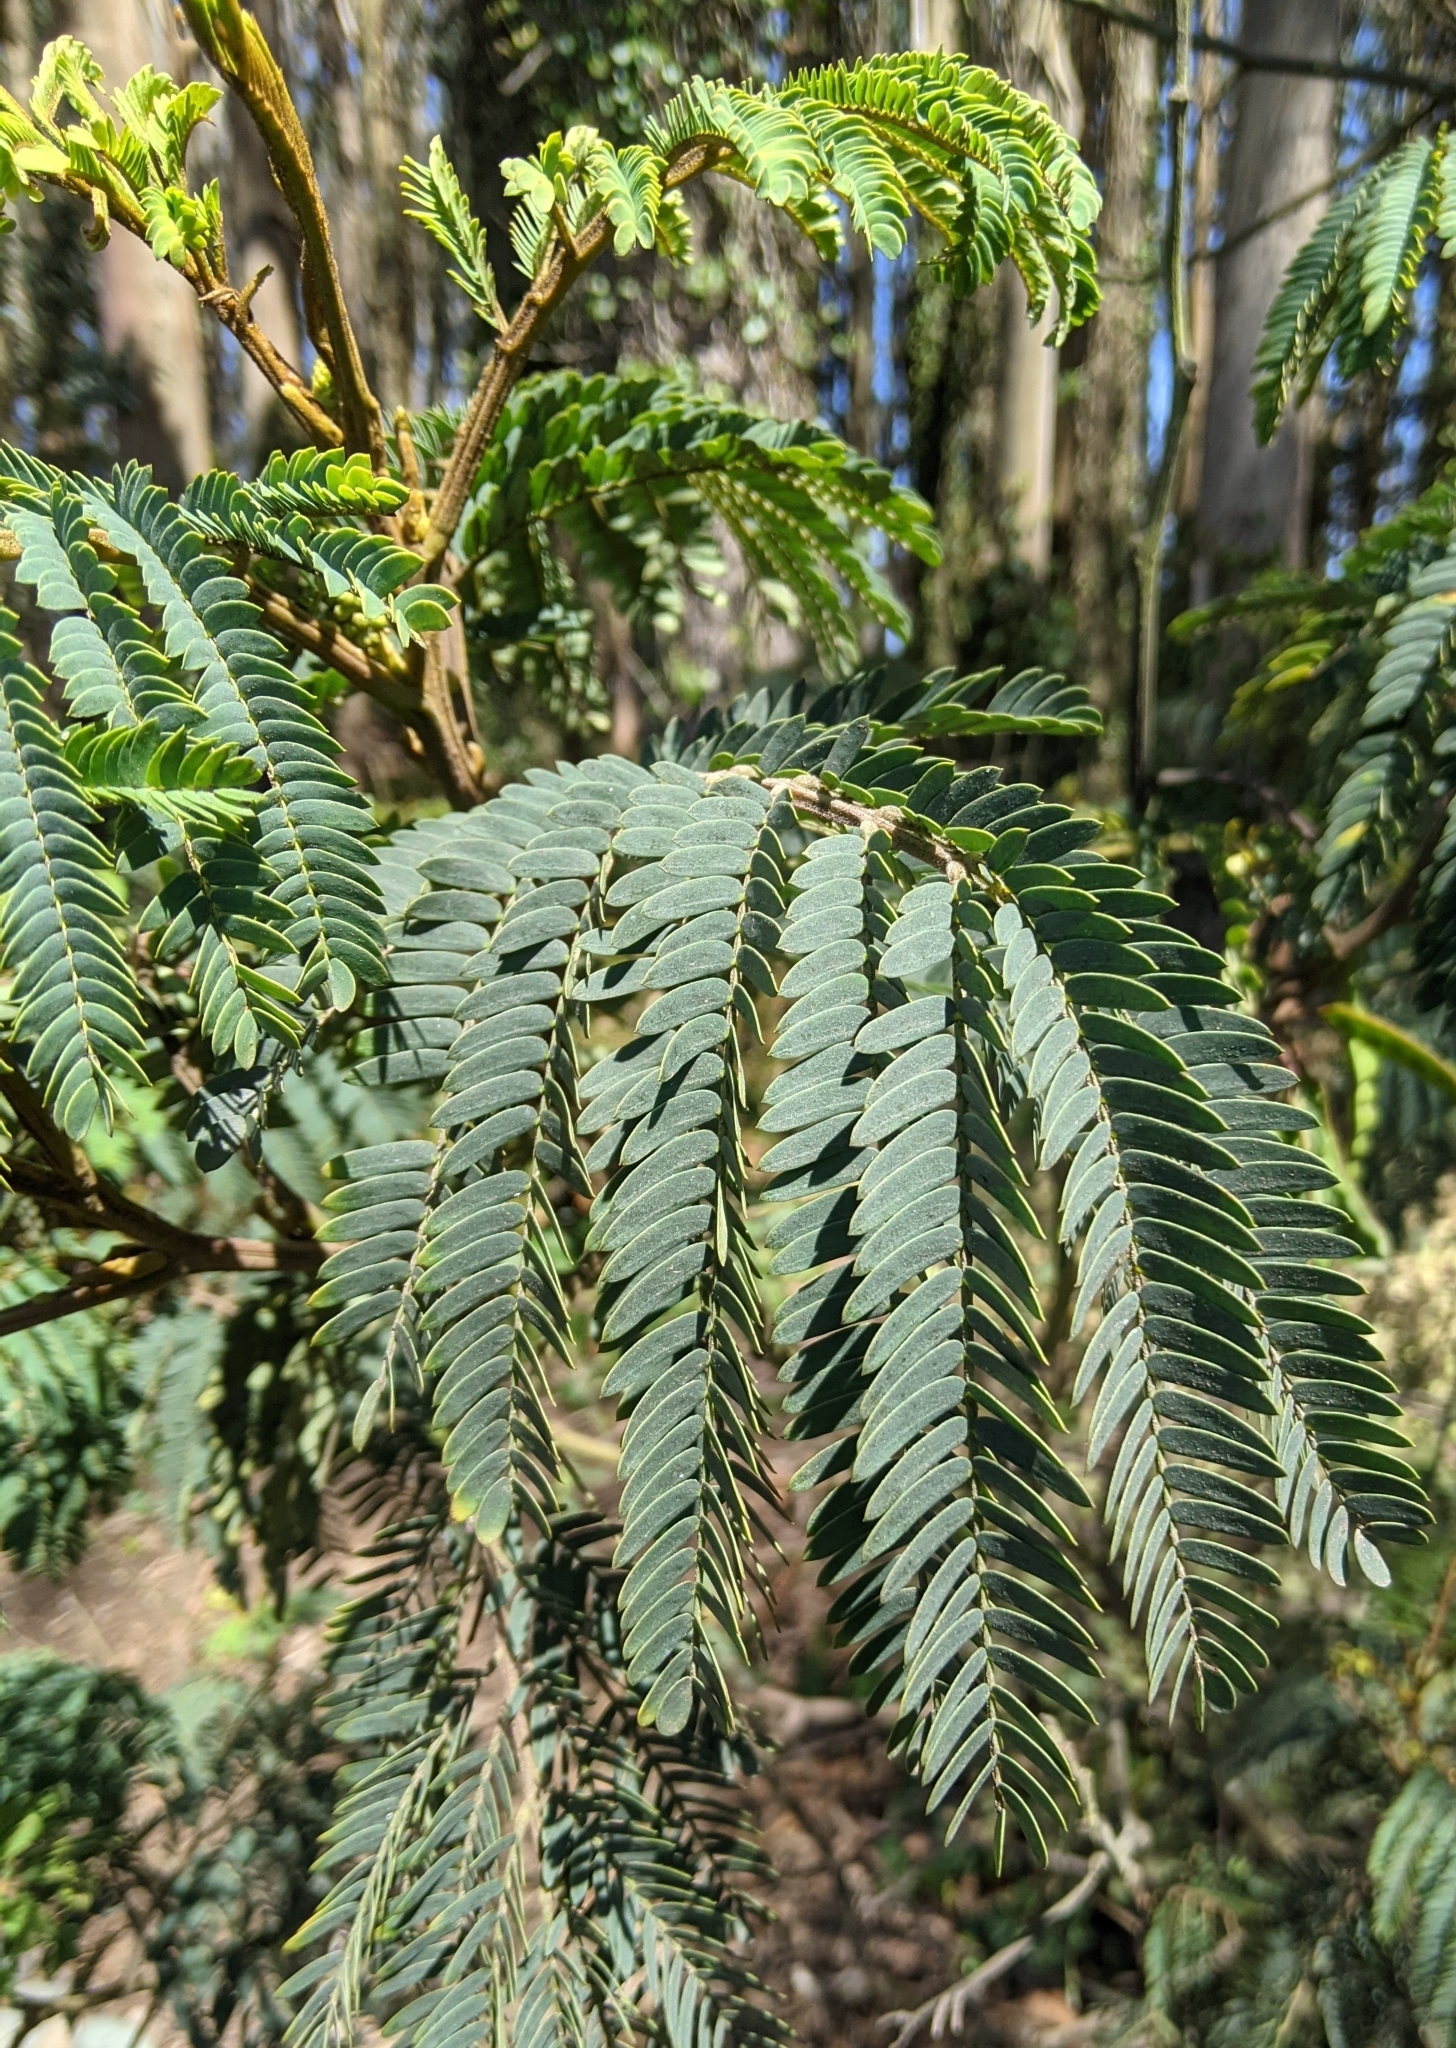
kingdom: Plantae
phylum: Tracheophyta
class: Magnoliopsida
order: Fabales
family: Fabaceae
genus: Paraserianthes
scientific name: Paraserianthes lophantha
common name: Plume albizia
